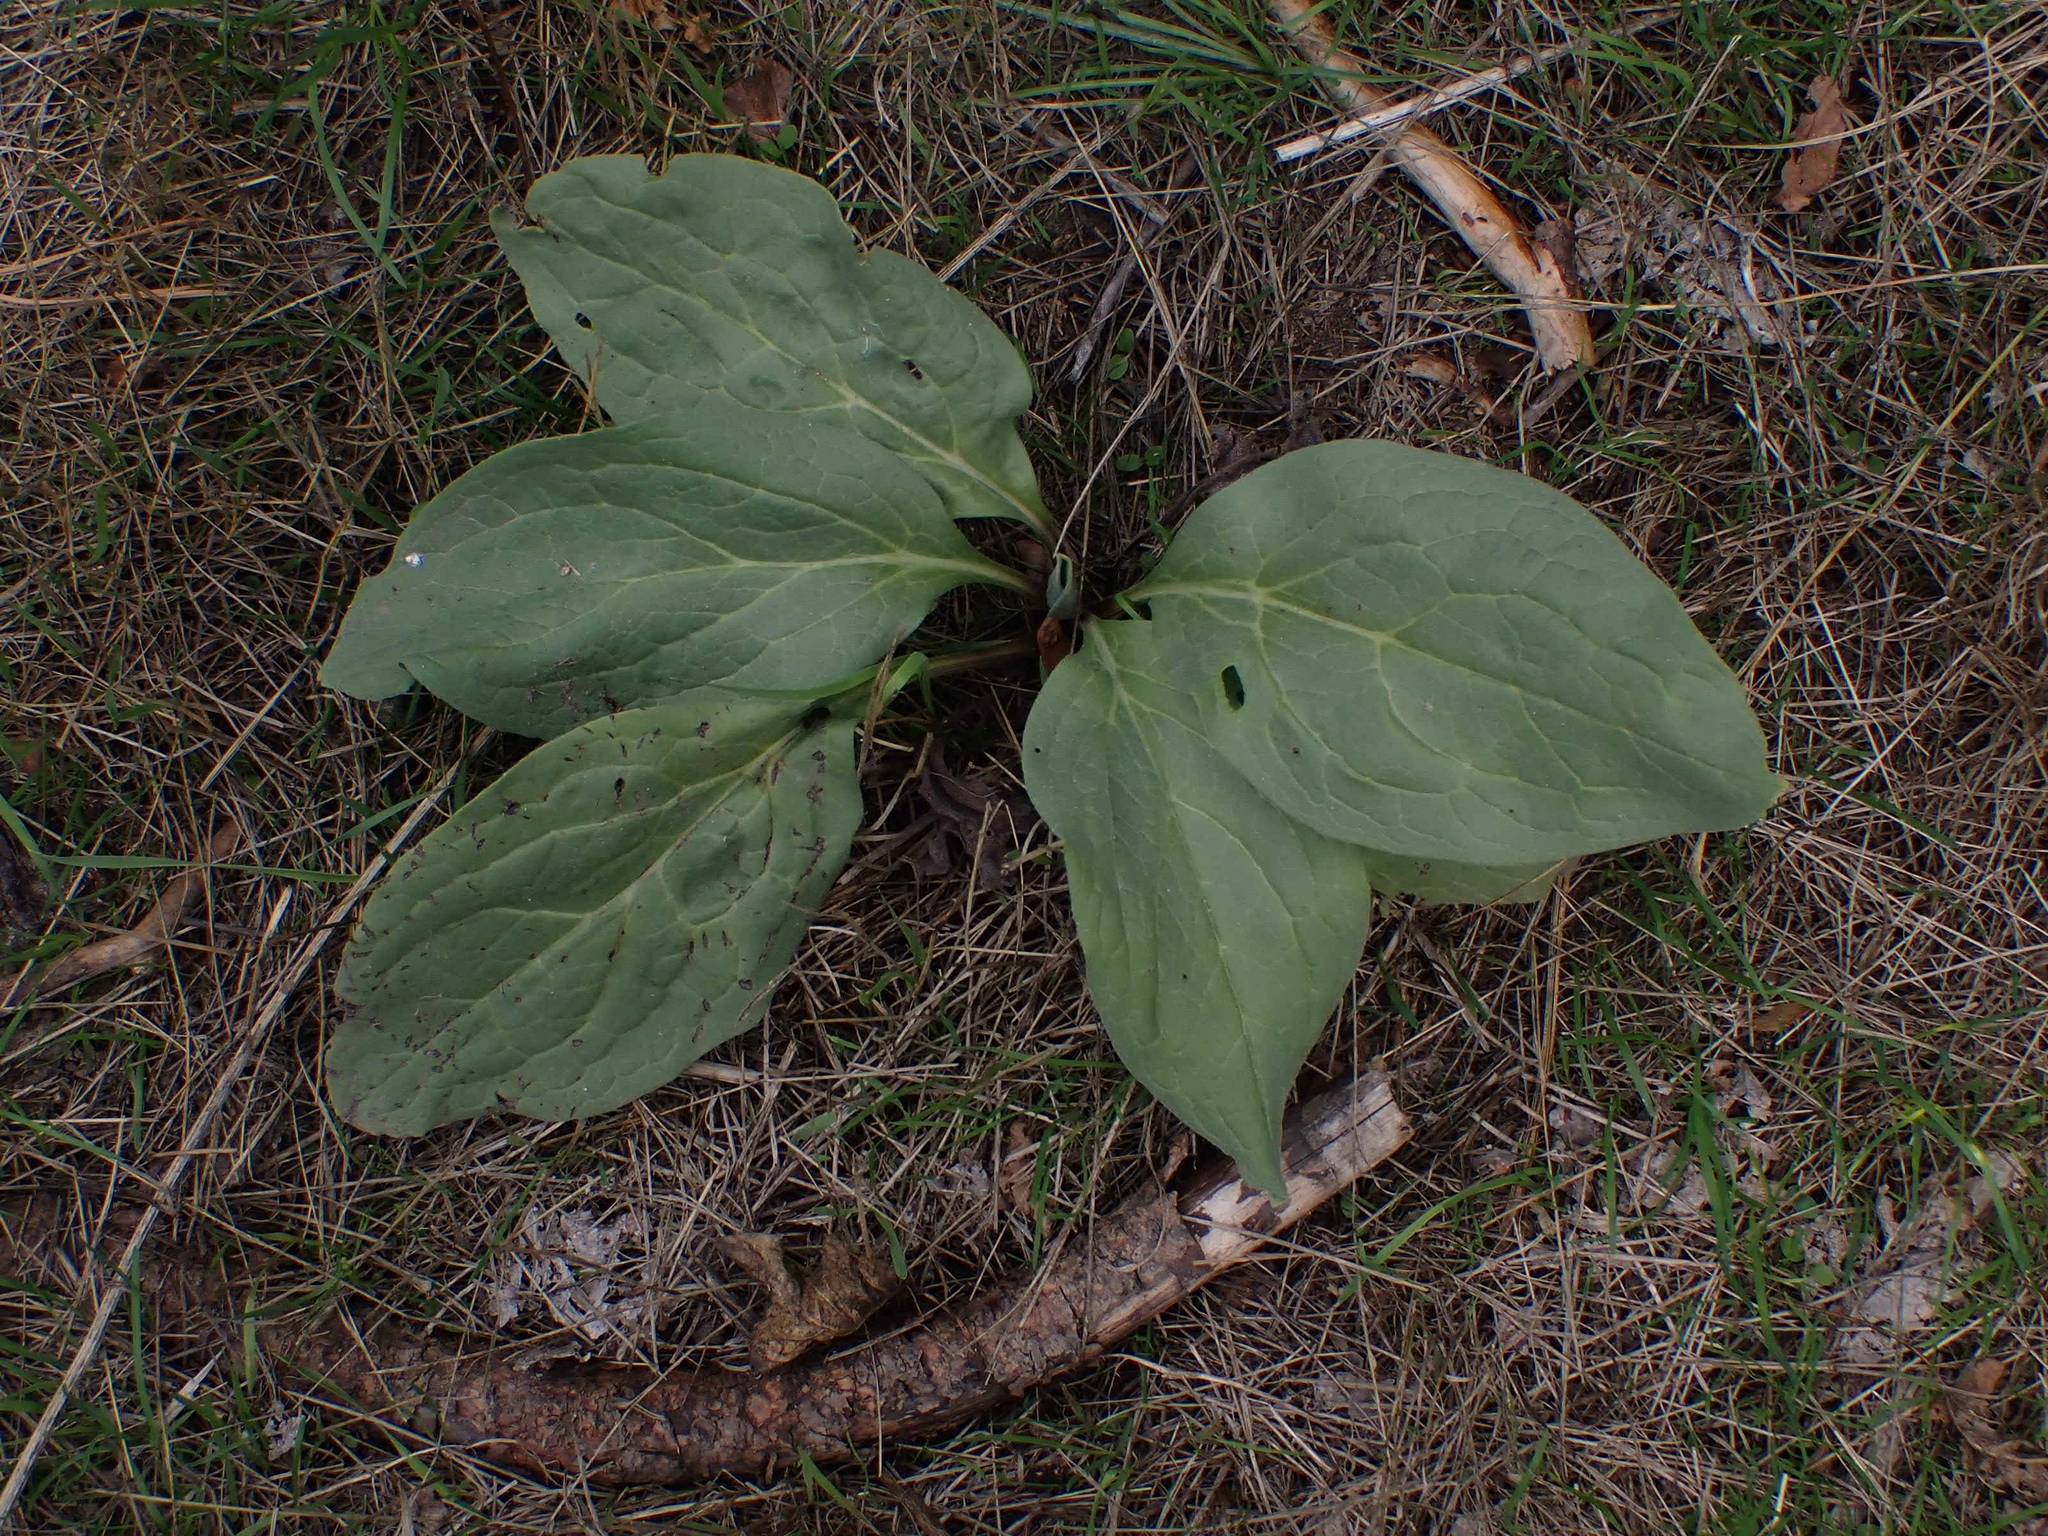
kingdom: Plantae
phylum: Tracheophyta
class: Magnoliopsida
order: Boraginales
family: Boraginaceae
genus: Cynoglossum
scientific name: Cynoglossum officinale
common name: Hound's-tongue
